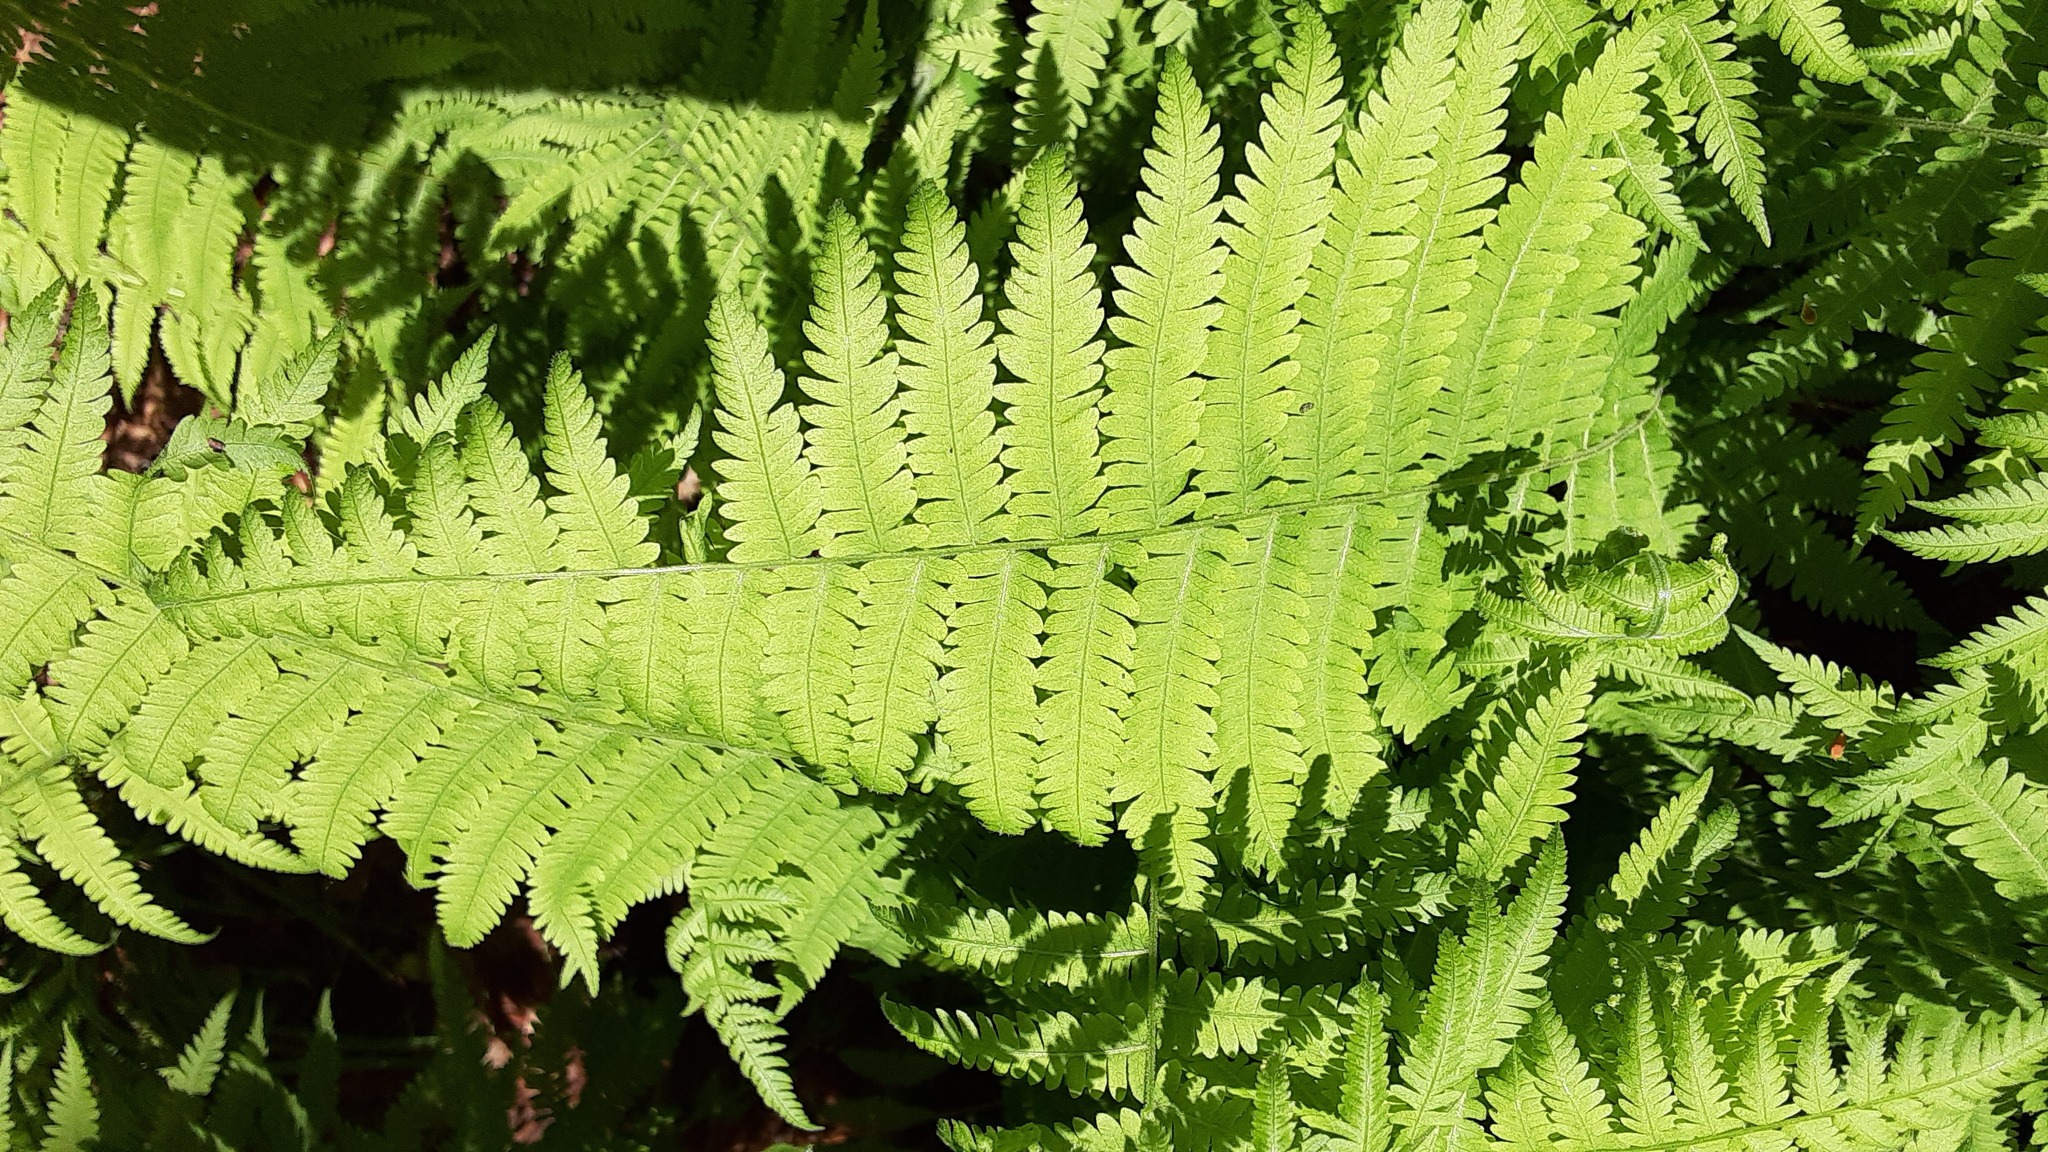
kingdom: Plantae
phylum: Tracheophyta
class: Polypodiopsida
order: Polypodiales
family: Thelypteridaceae
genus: Amauropelta
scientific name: Amauropelta noveboracensis
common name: New york fern
